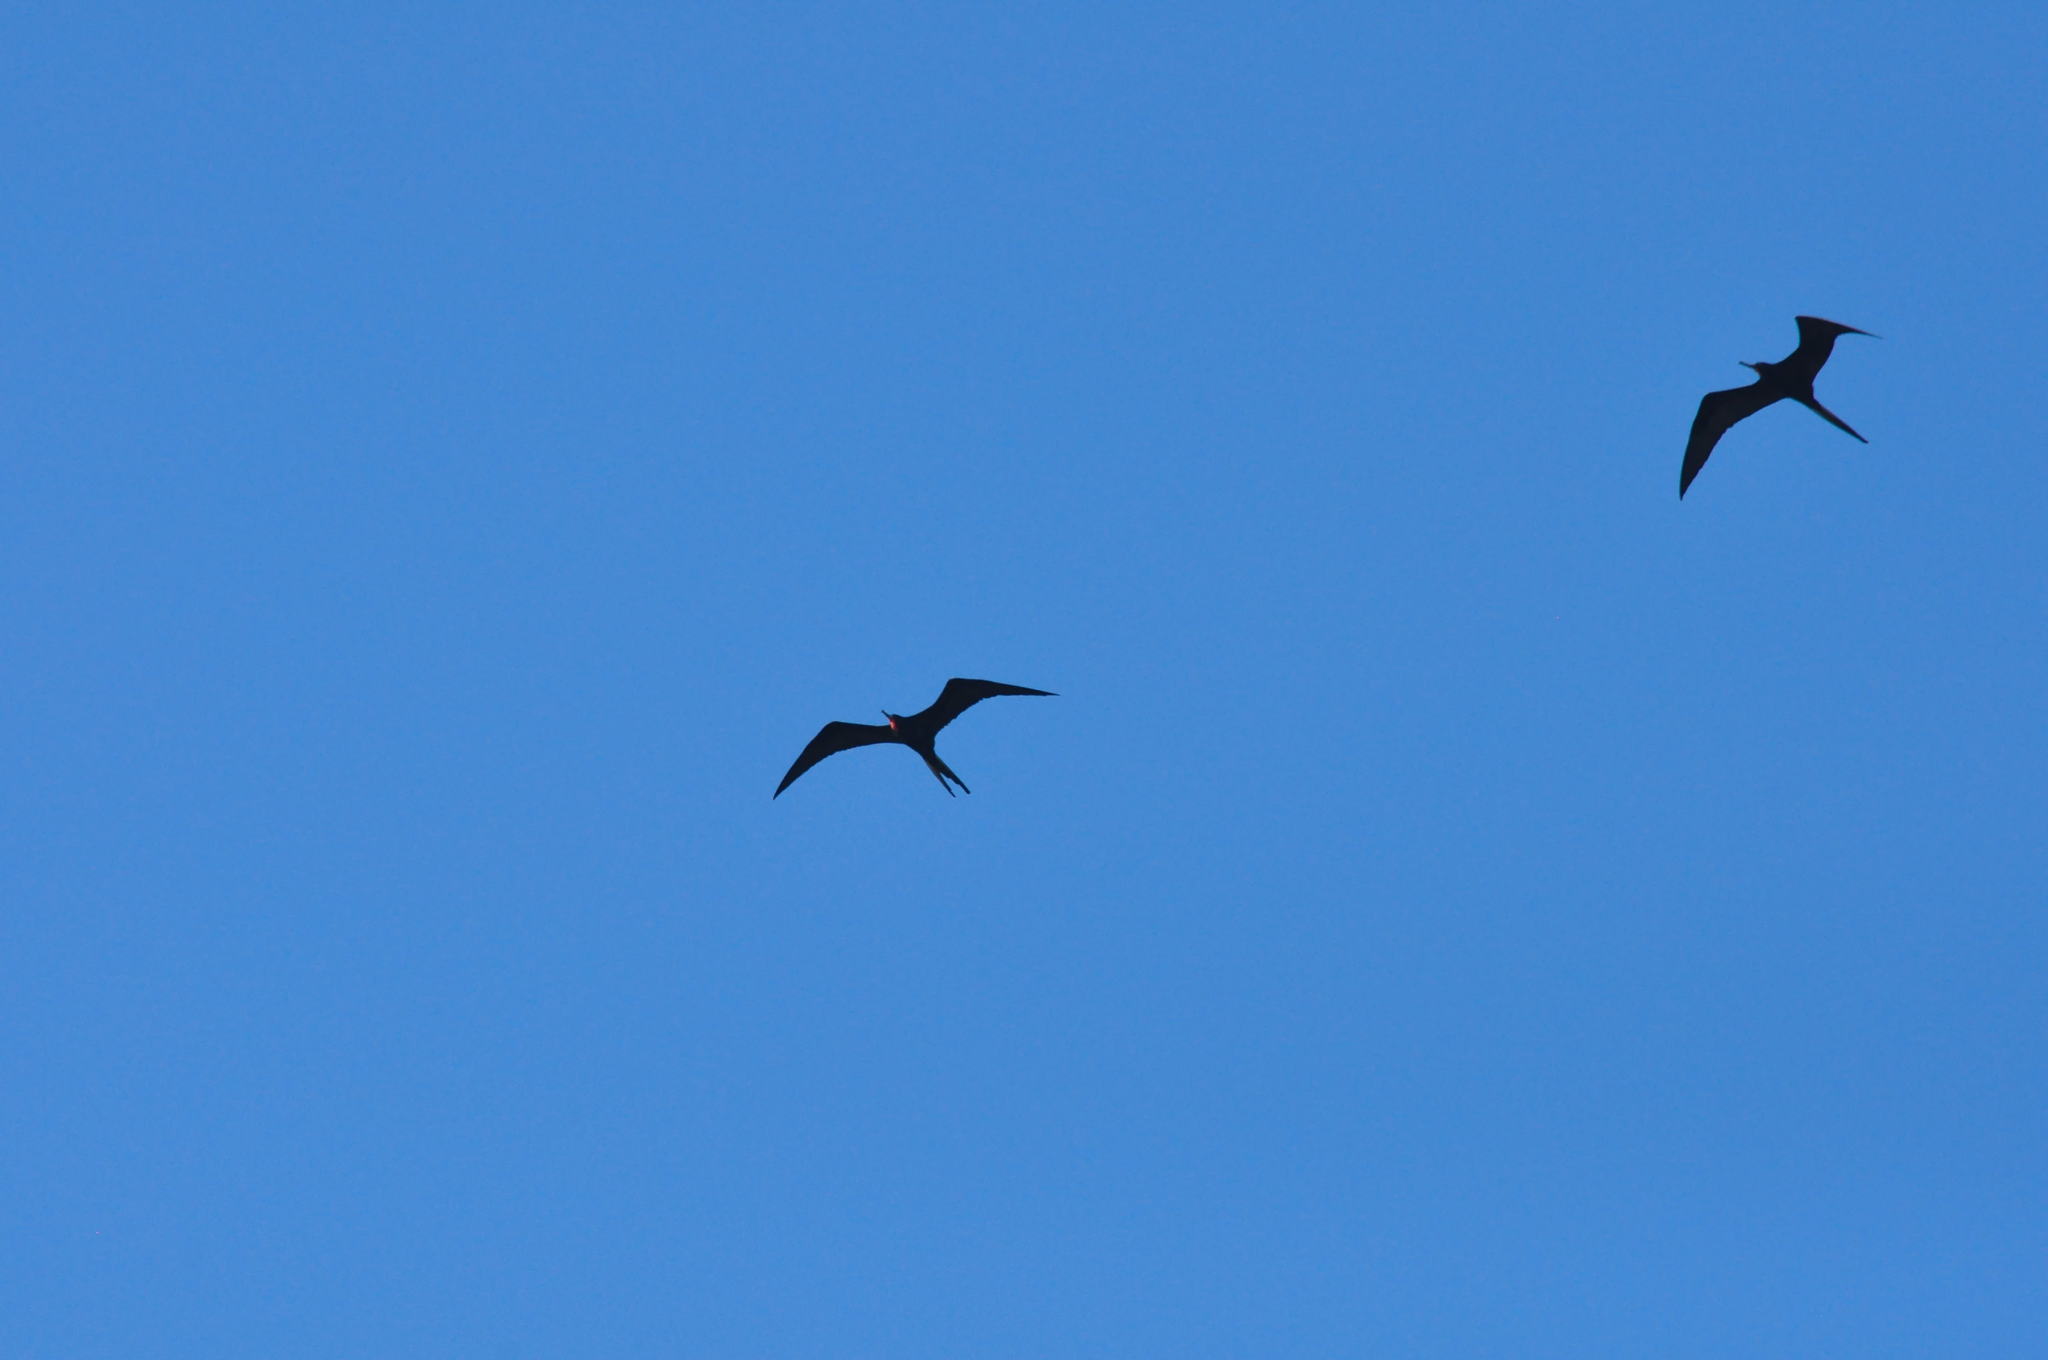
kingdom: Animalia
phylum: Chordata
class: Aves
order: Suliformes
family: Fregatidae
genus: Fregata
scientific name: Fregata magnificens
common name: Magnificent frigatebird
